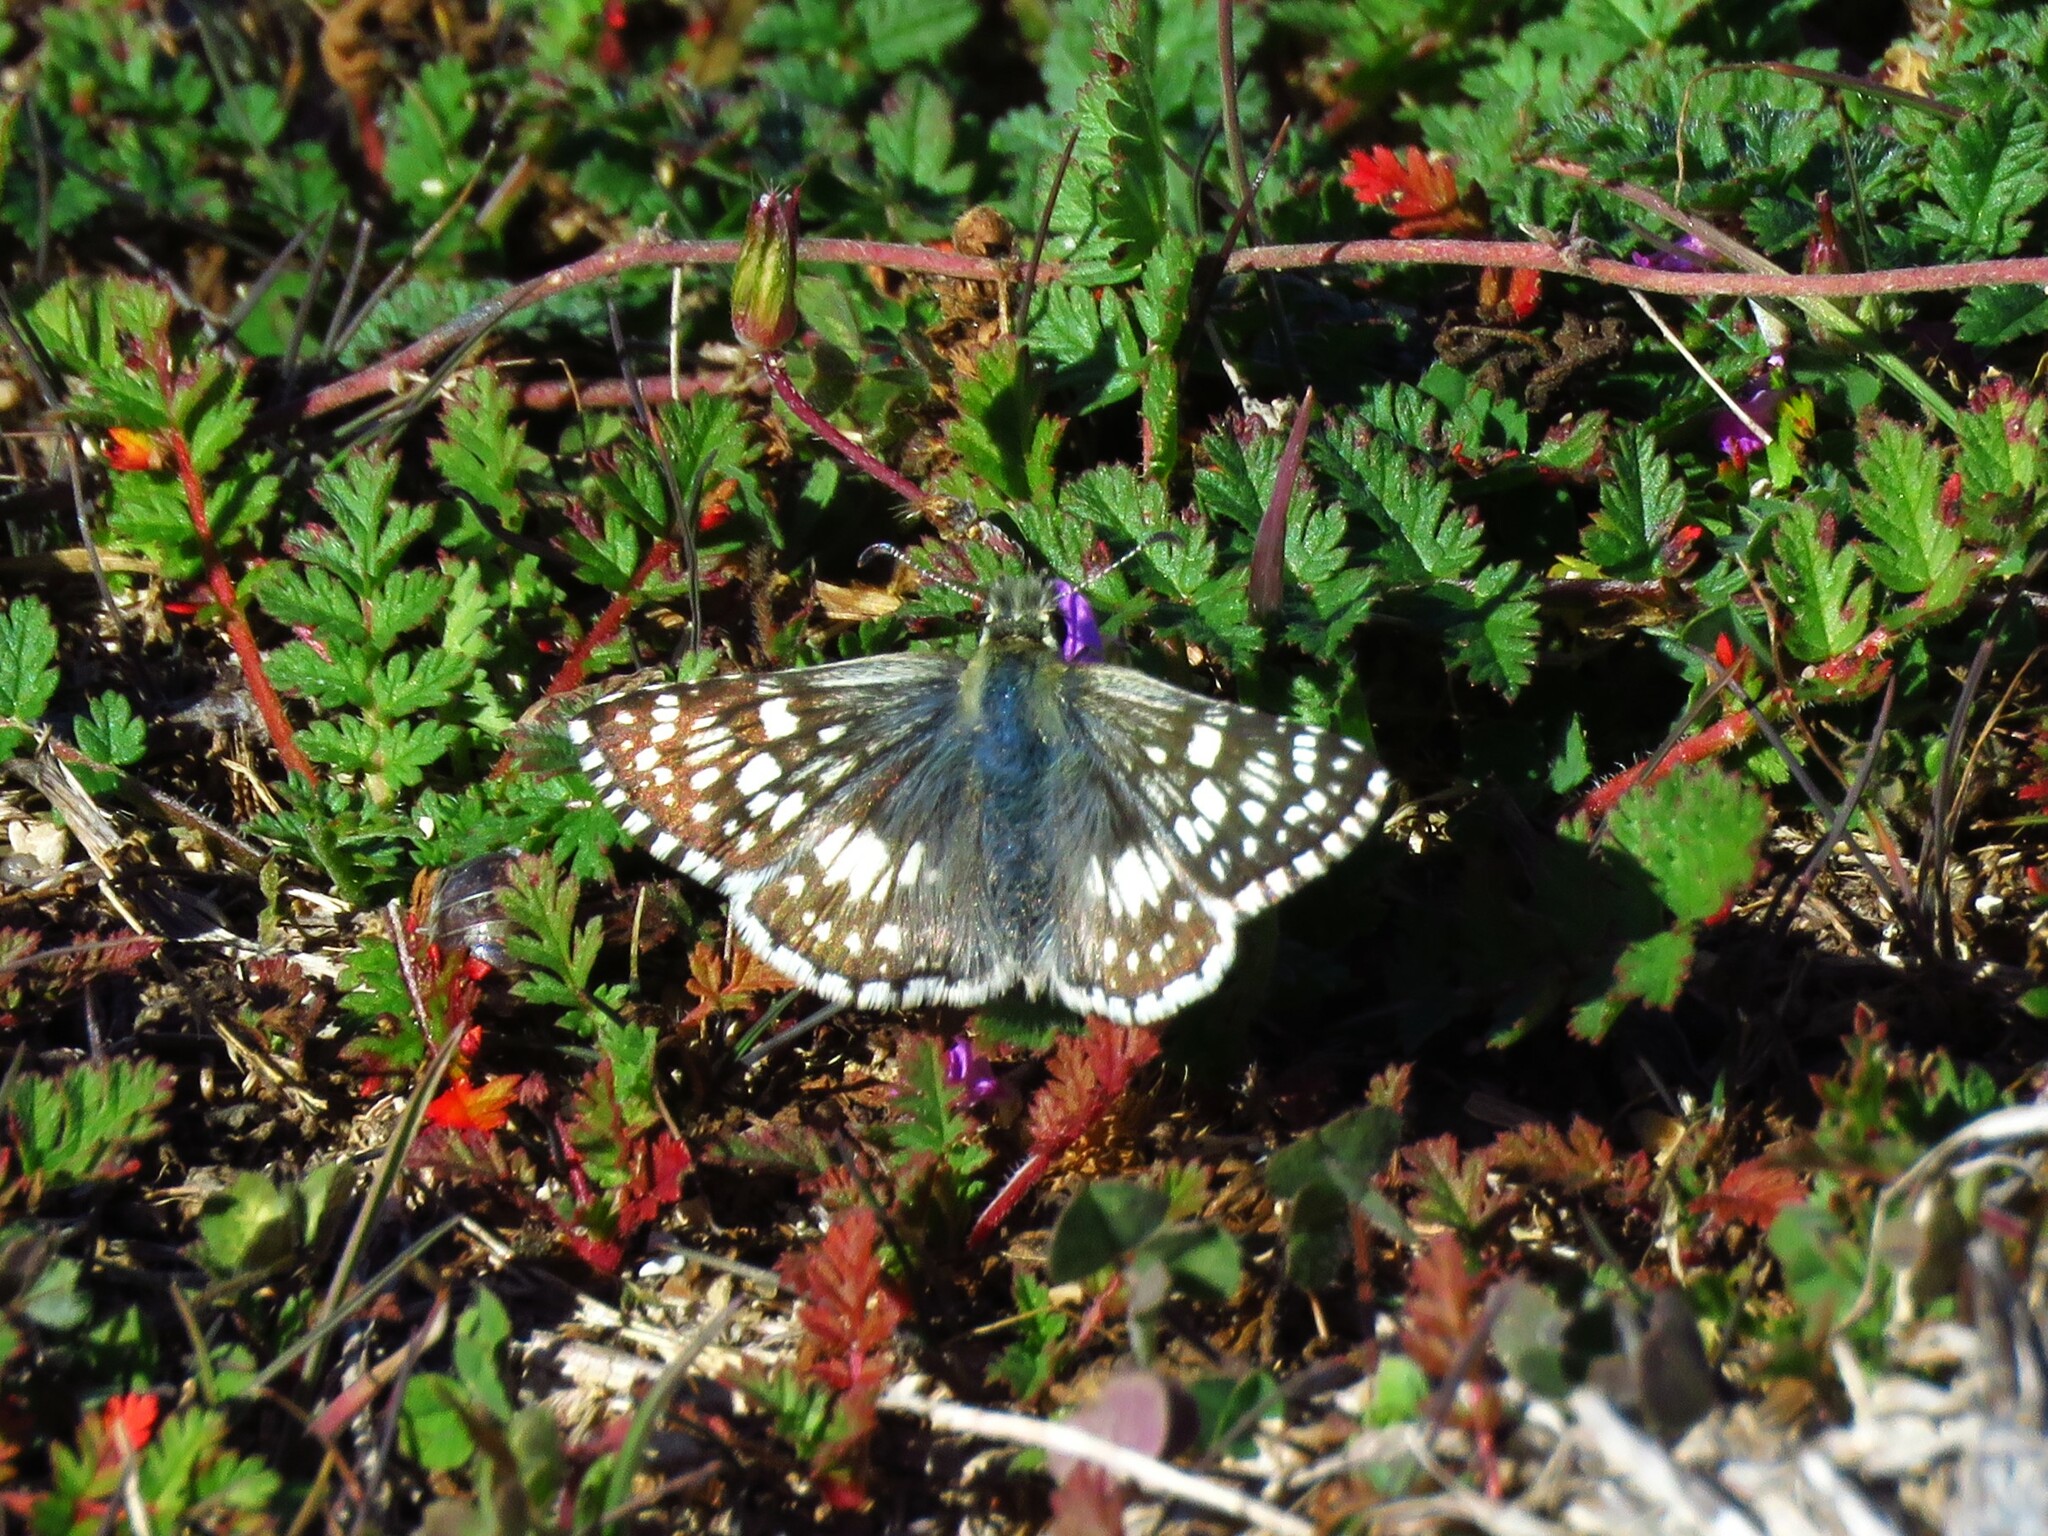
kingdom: Animalia
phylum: Arthropoda
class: Insecta
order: Lepidoptera
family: Hesperiidae
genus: Burnsius
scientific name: Burnsius
